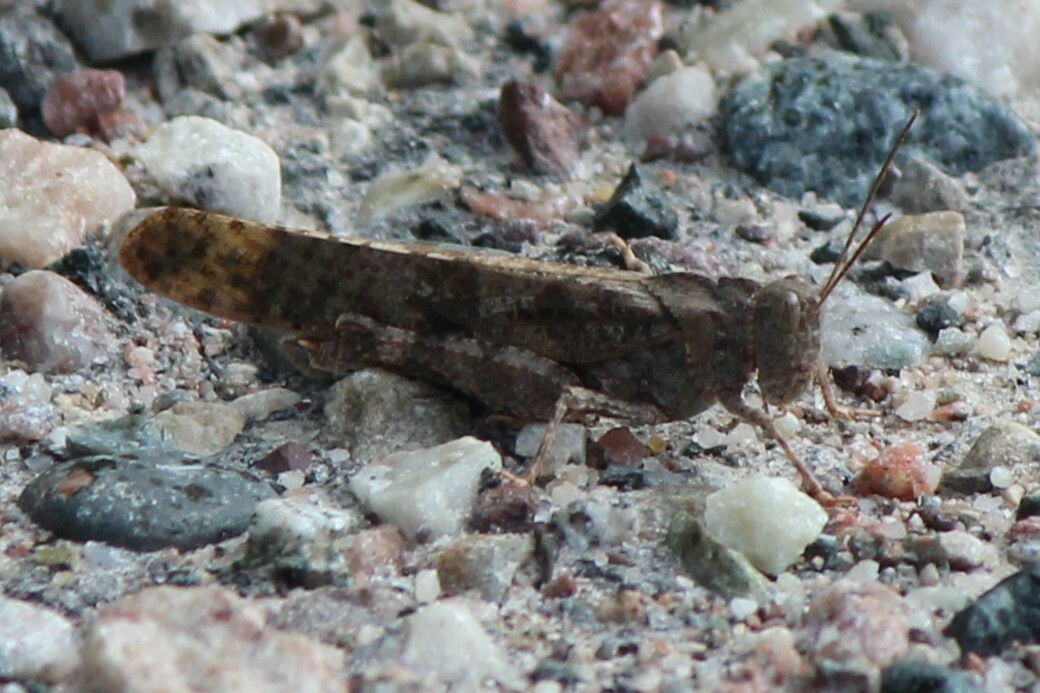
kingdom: Animalia
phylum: Arthropoda
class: Insecta
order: Orthoptera
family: Acrididae
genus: Dissosteira
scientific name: Dissosteira carolina
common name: Carolina grasshopper
